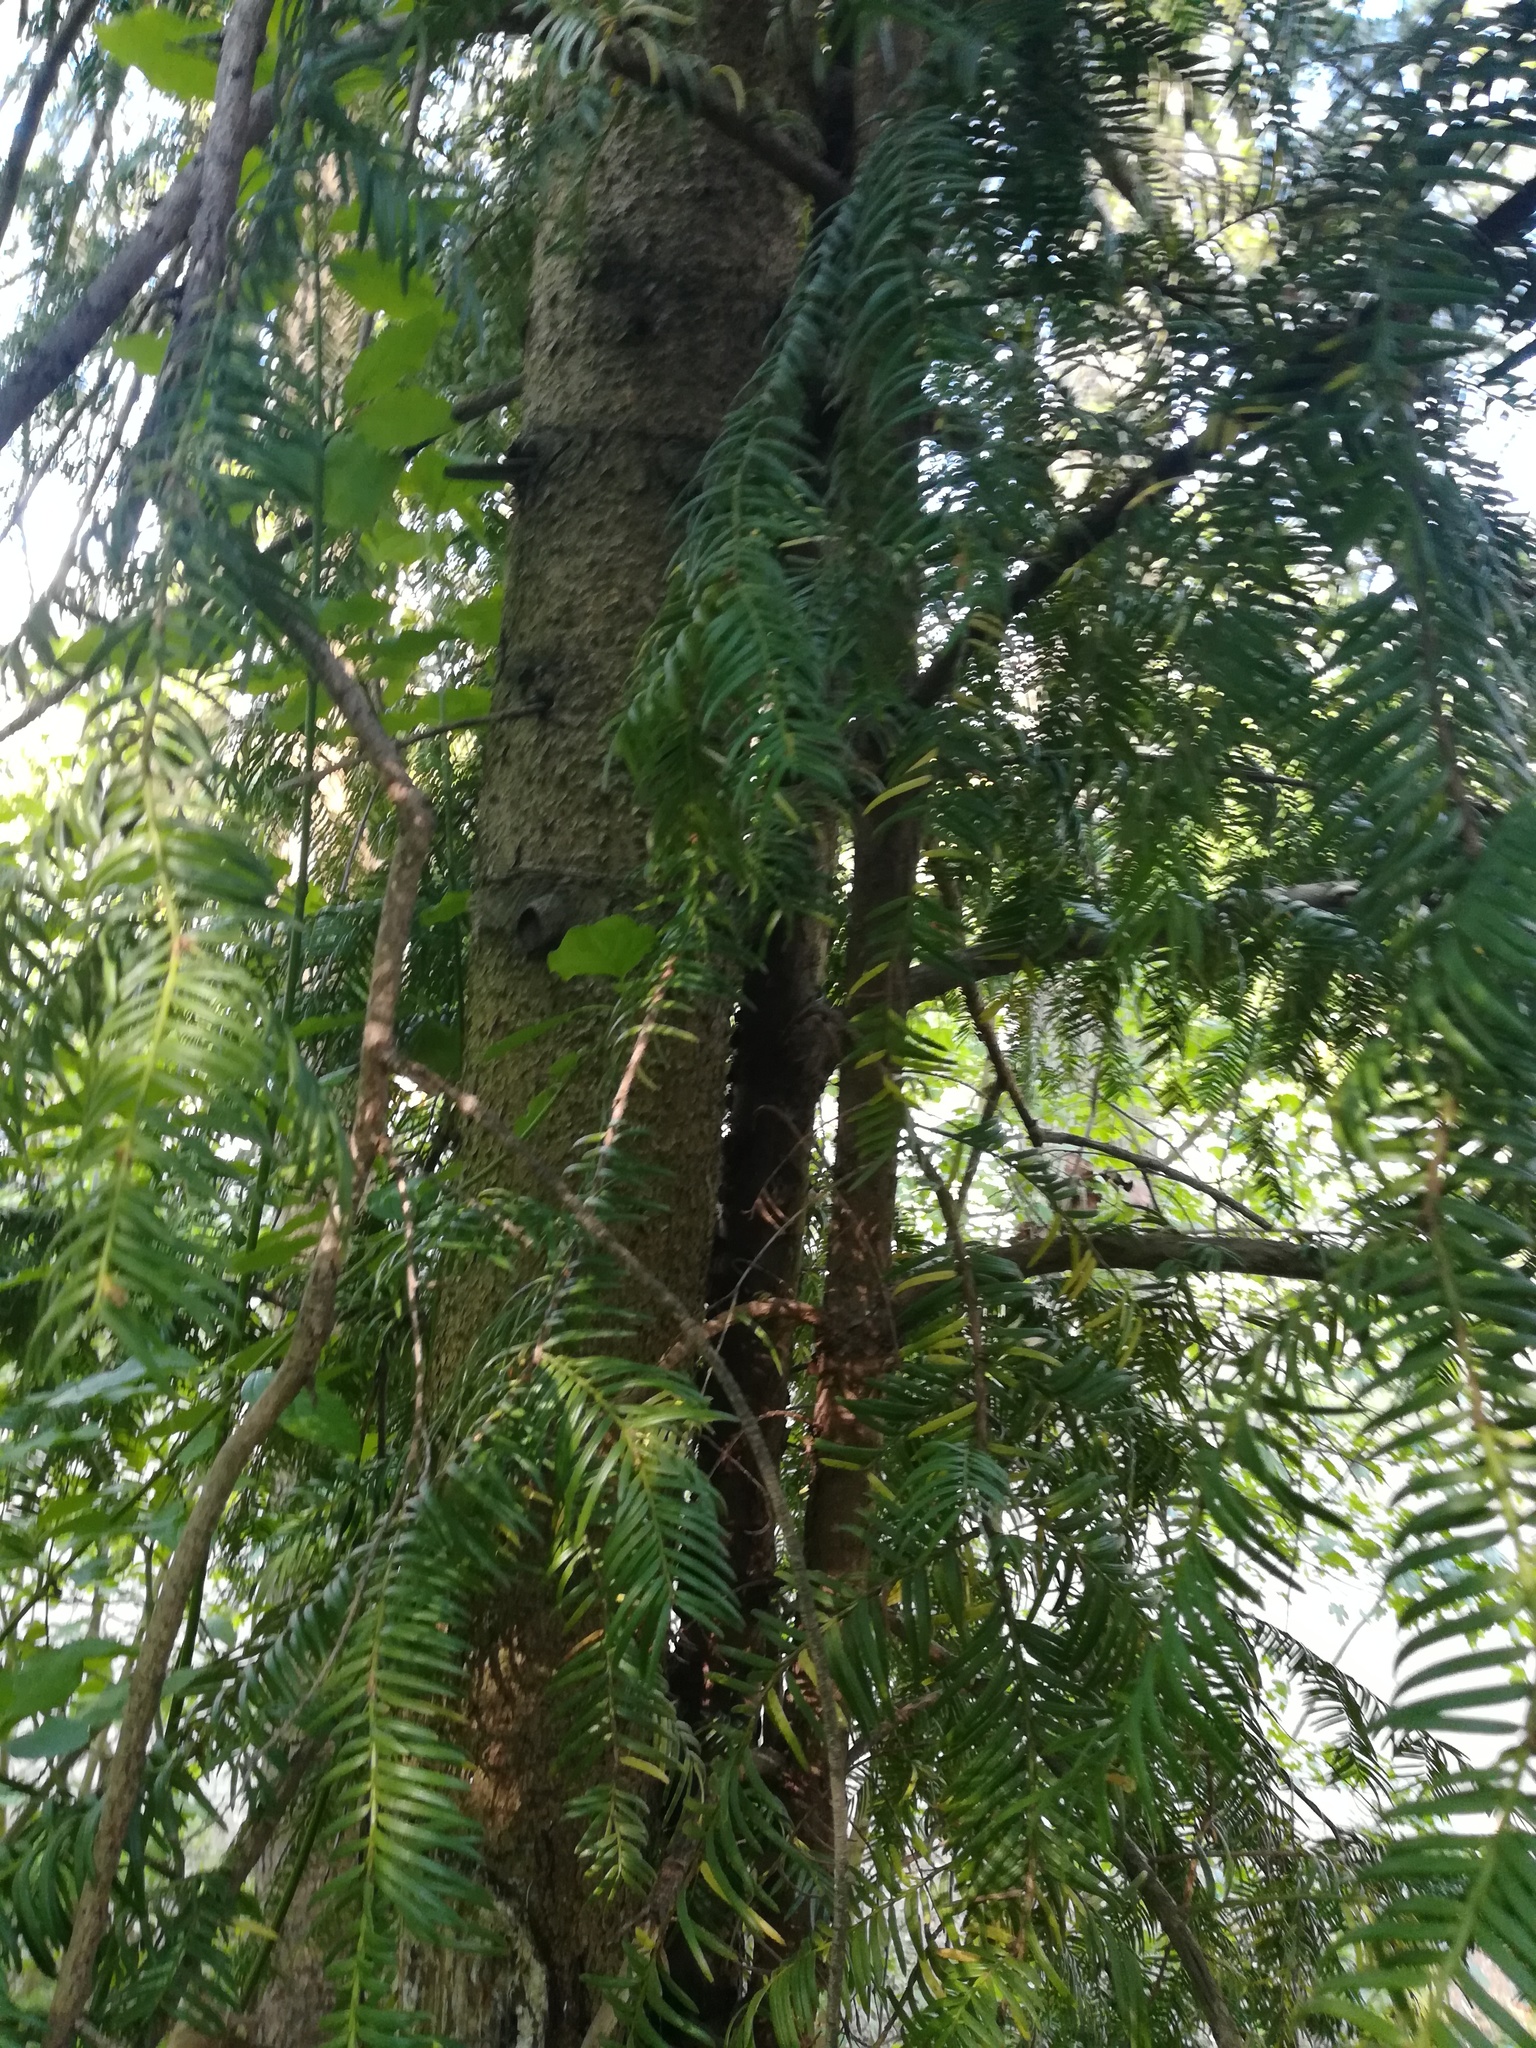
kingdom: Plantae
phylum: Tracheophyta
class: Pinopsida
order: Pinales
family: Taxaceae
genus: Taxus
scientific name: Taxus baccata
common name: Yew
